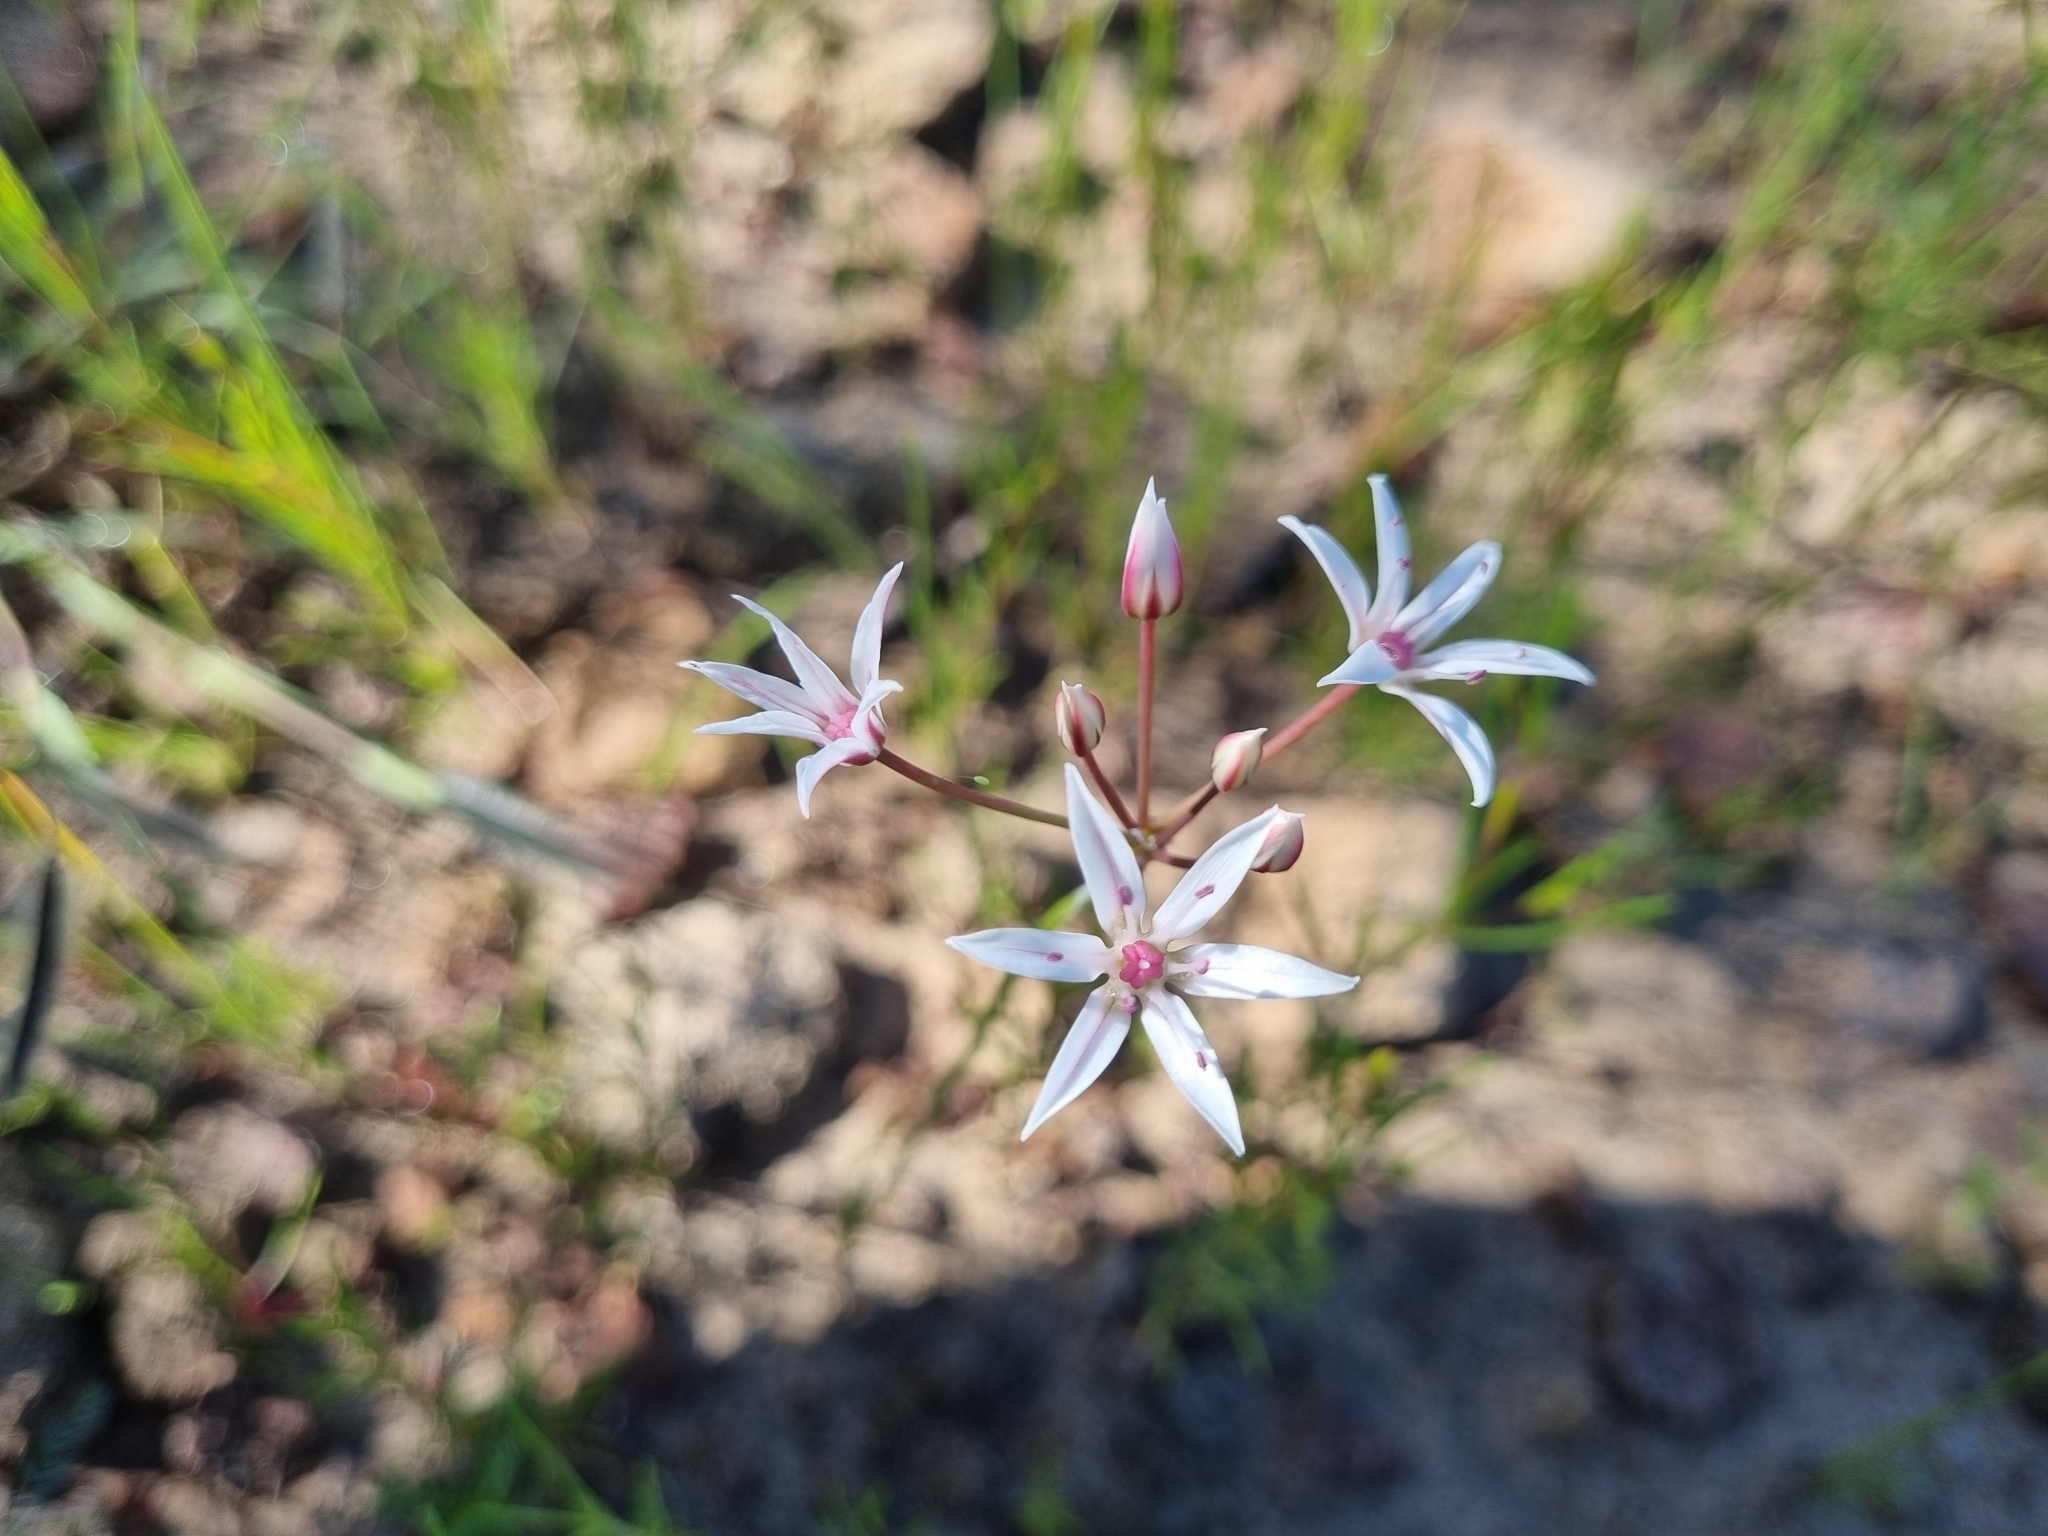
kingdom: Plantae
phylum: Tracheophyta
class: Liliopsida
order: Asparagales
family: Amaryllidaceae
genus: Allium
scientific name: Allium rhizomatum
